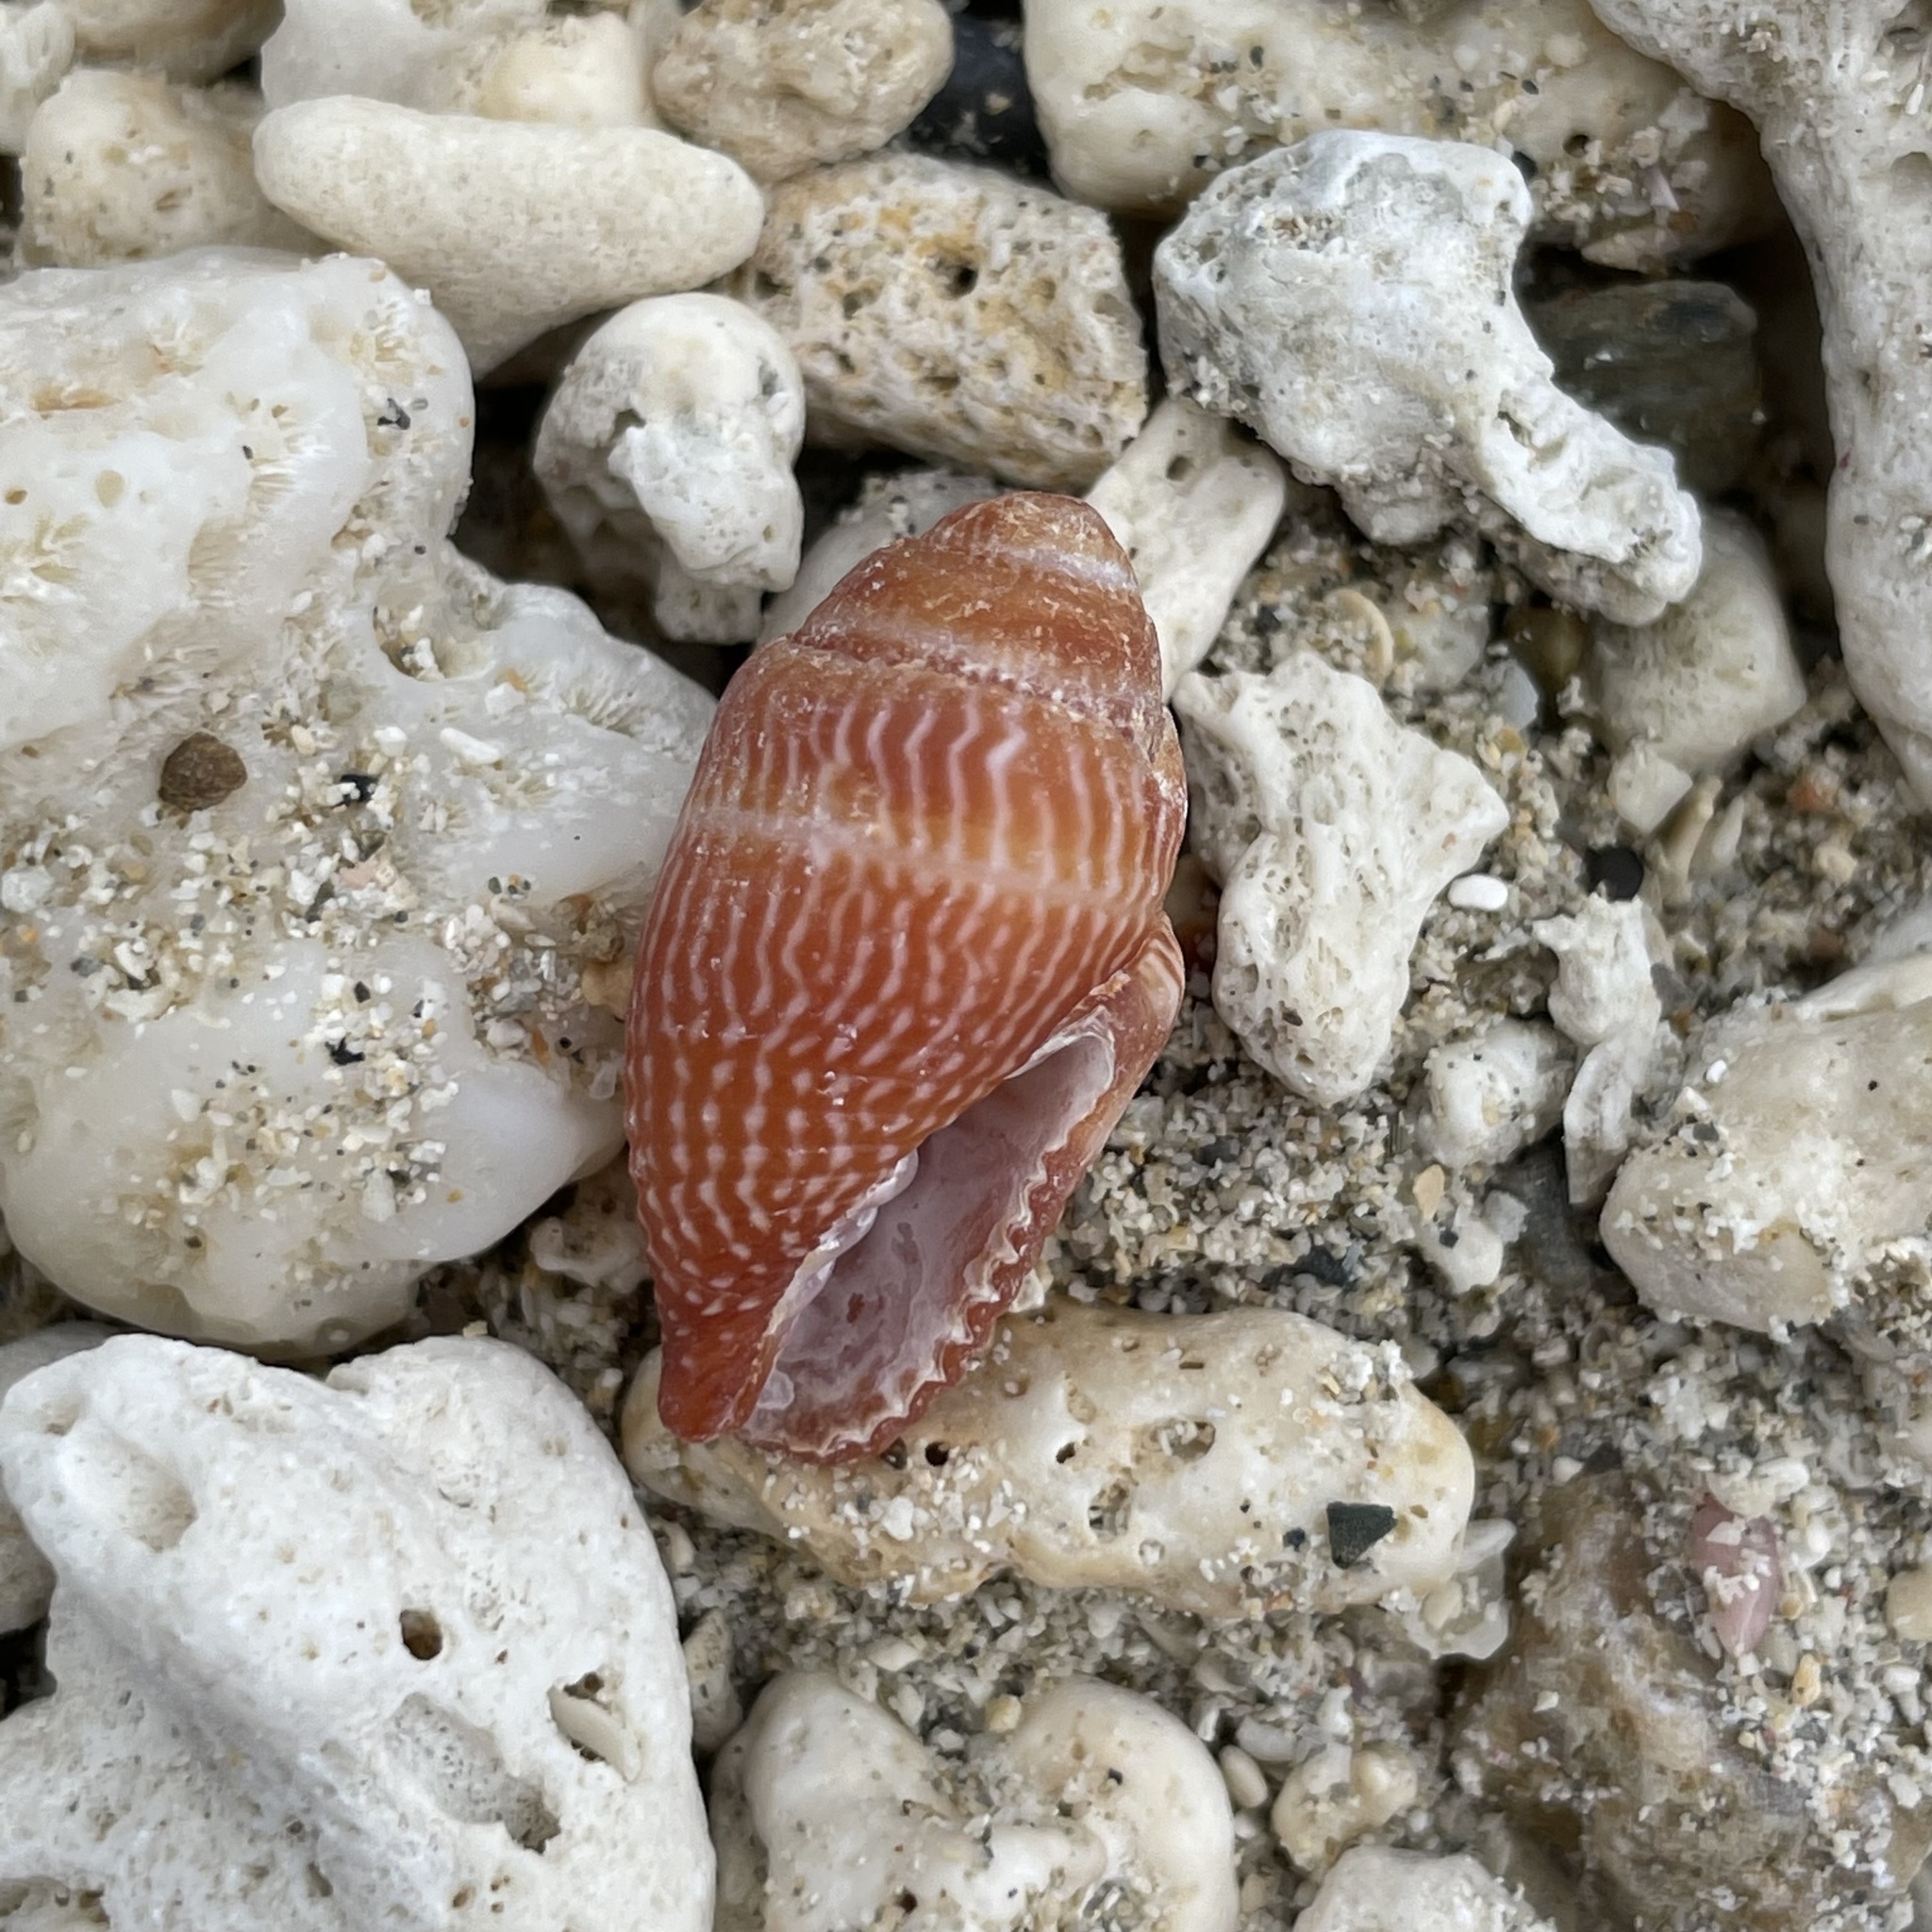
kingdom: Animalia
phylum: Mollusca
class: Gastropoda
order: Neogastropoda
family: Mitridae
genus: Strigatella
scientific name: Strigatella retusa
